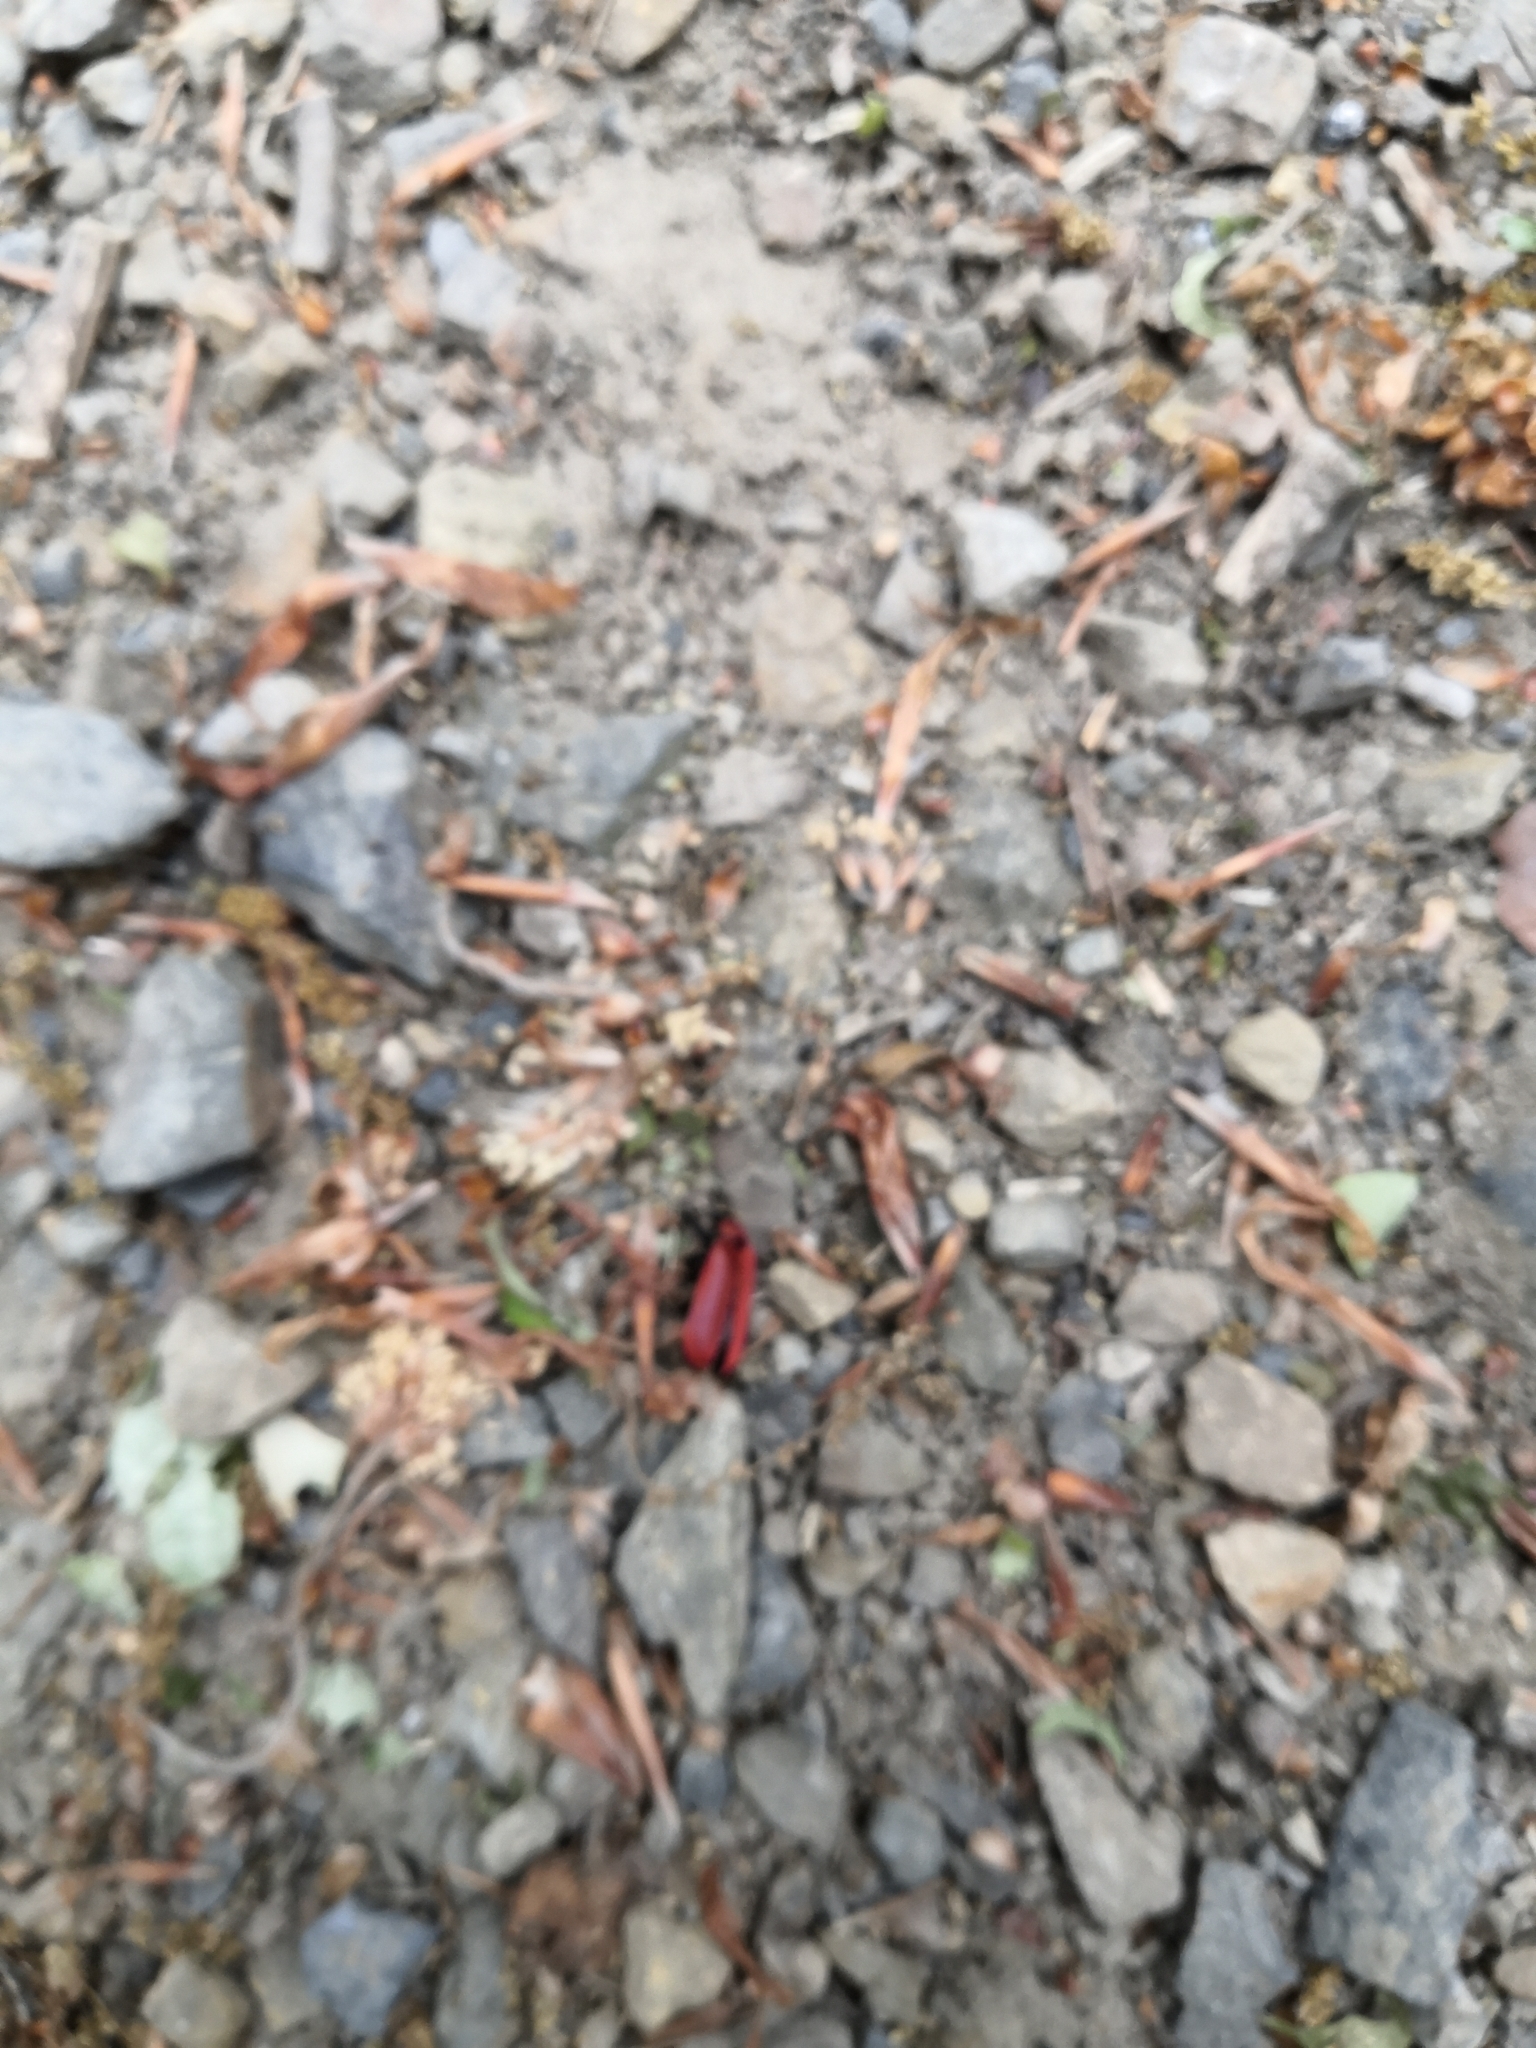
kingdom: Animalia
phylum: Arthropoda
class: Insecta
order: Coleoptera
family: Pyrochroidae
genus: Pyrochroa
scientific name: Pyrochroa coccinea
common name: Black-headed cardinal beetle
